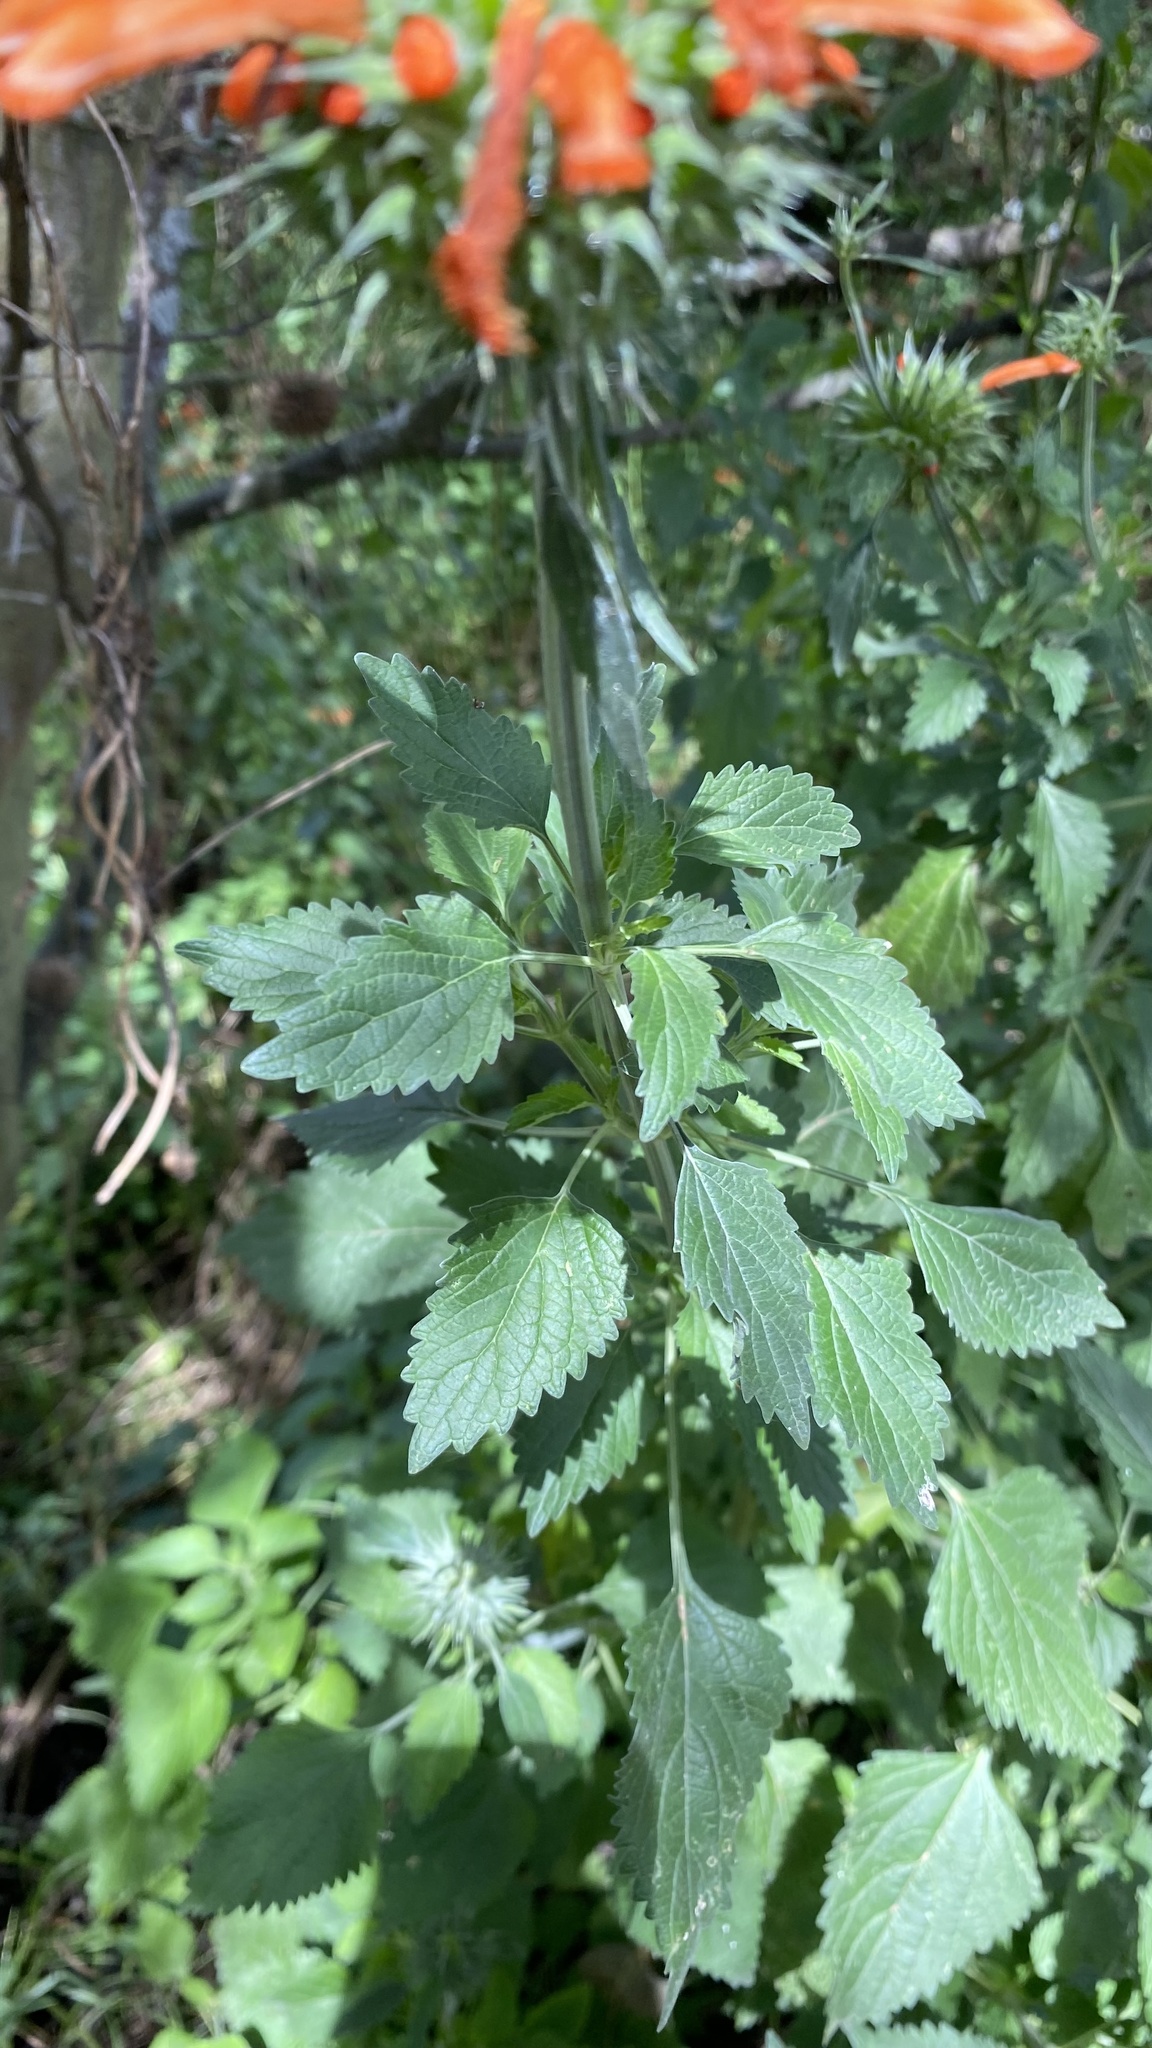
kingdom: Plantae
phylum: Tracheophyta
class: Magnoliopsida
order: Lamiales
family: Lamiaceae
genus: Leonotis
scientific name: Leonotis nepetifolia
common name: Christmas candlestick
